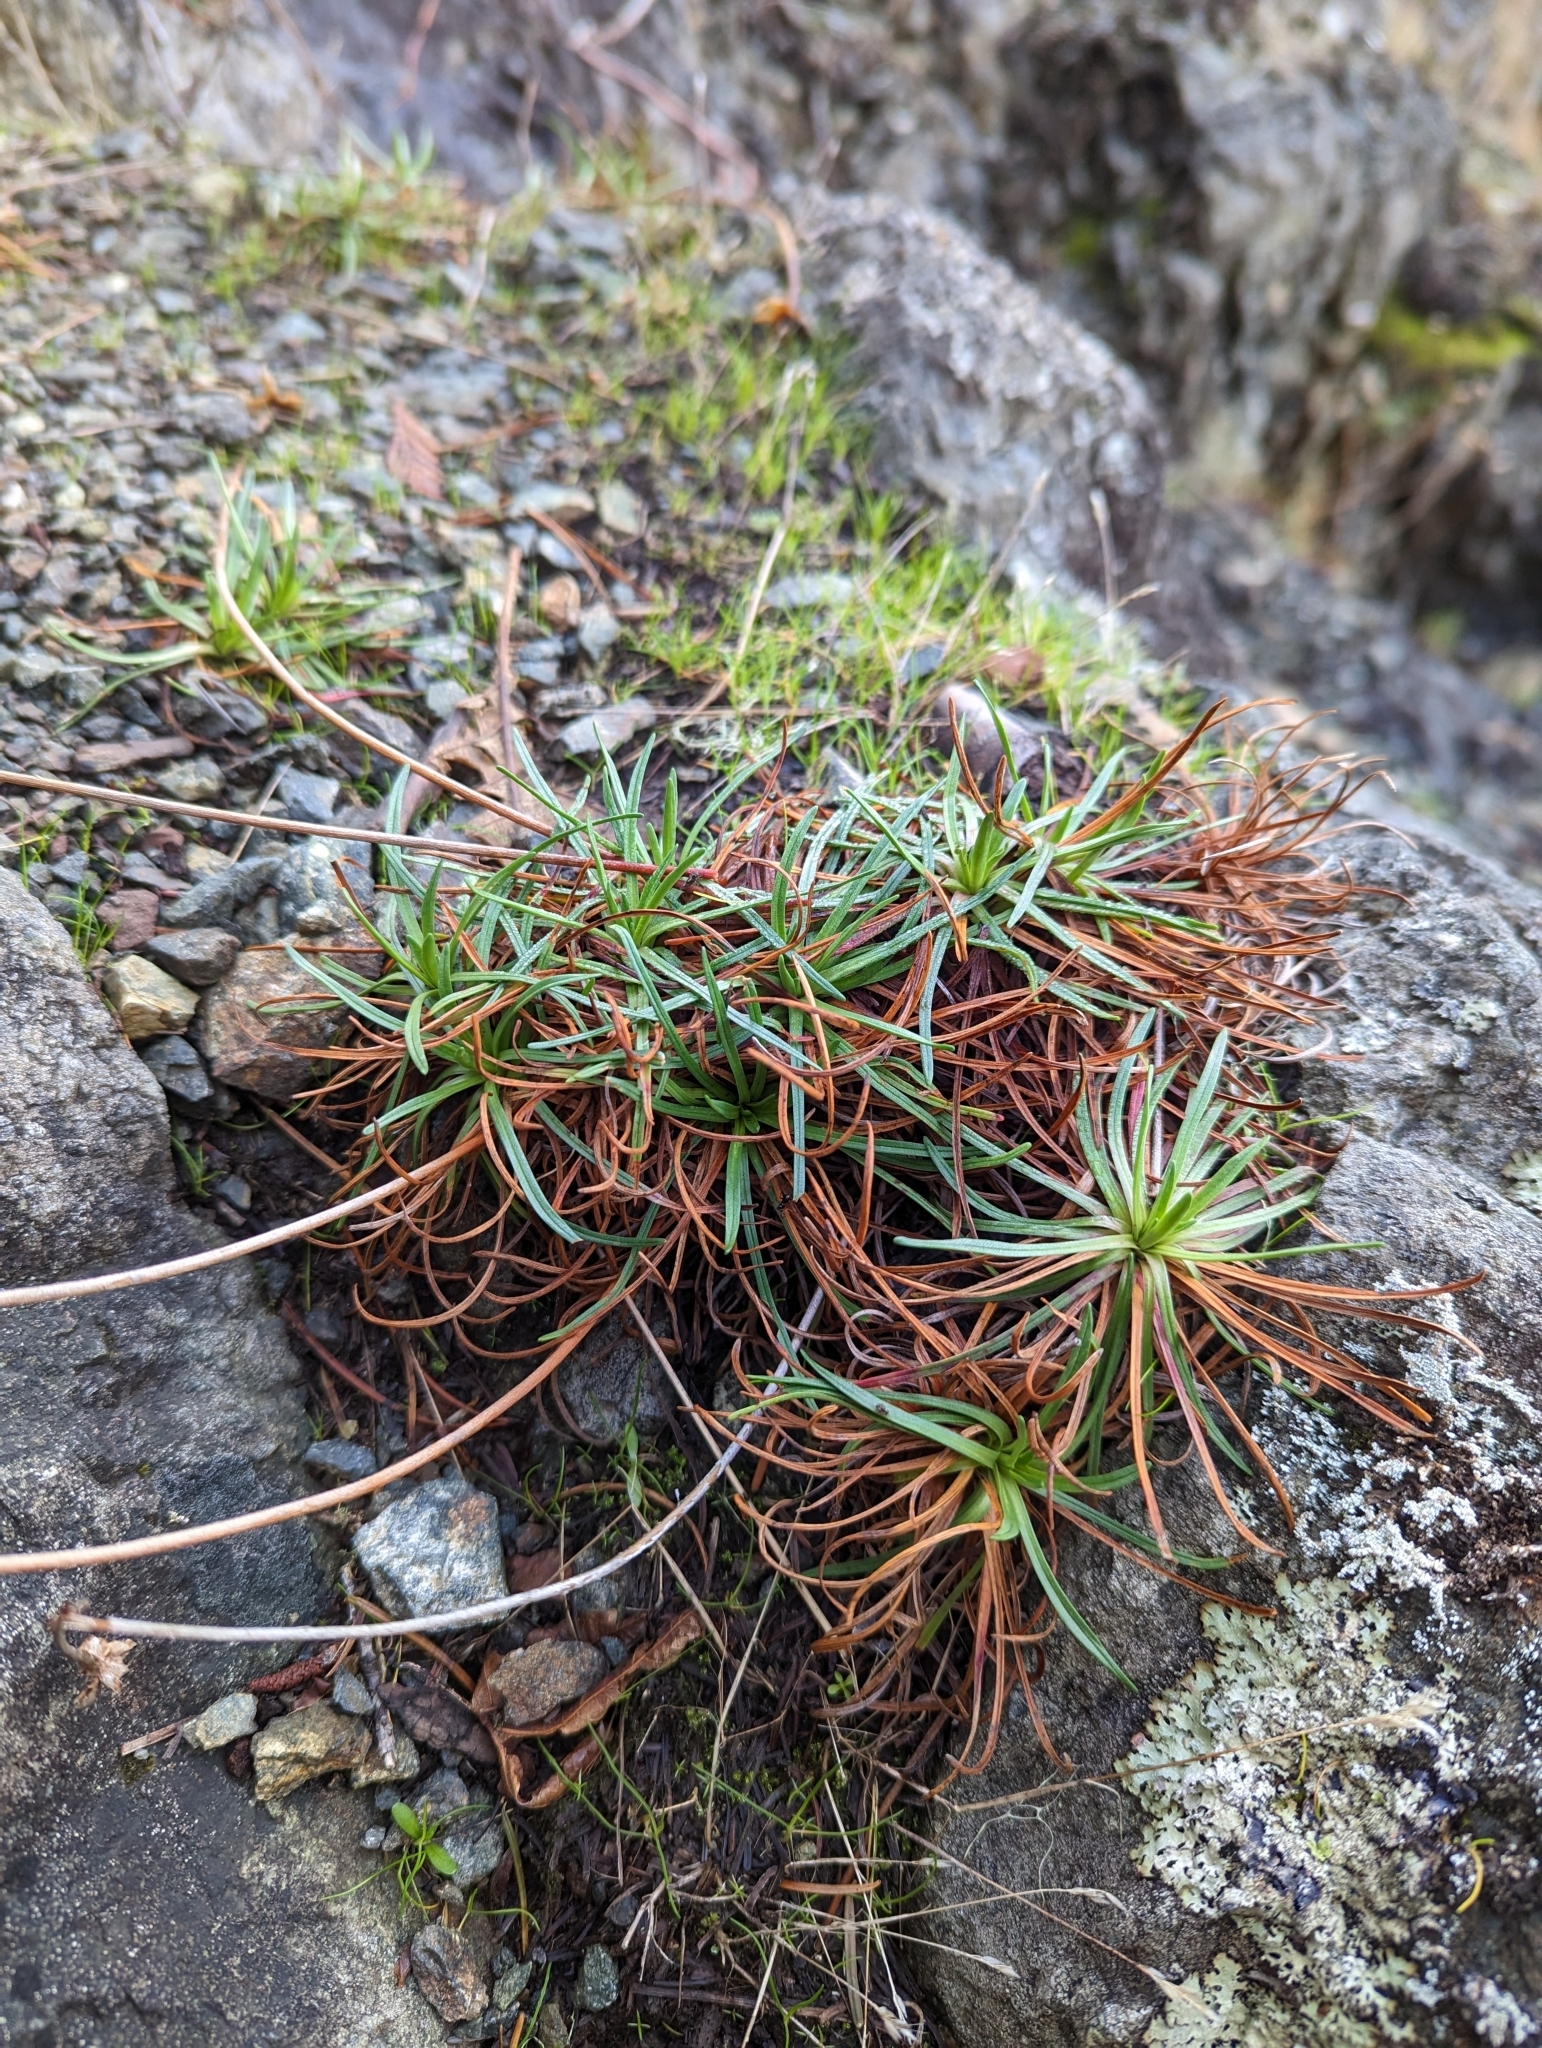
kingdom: Plantae
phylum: Tracheophyta
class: Magnoliopsida
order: Caryophyllales
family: Plumbaginaceae
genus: Armeria
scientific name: Armeria maritima
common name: Thrift
